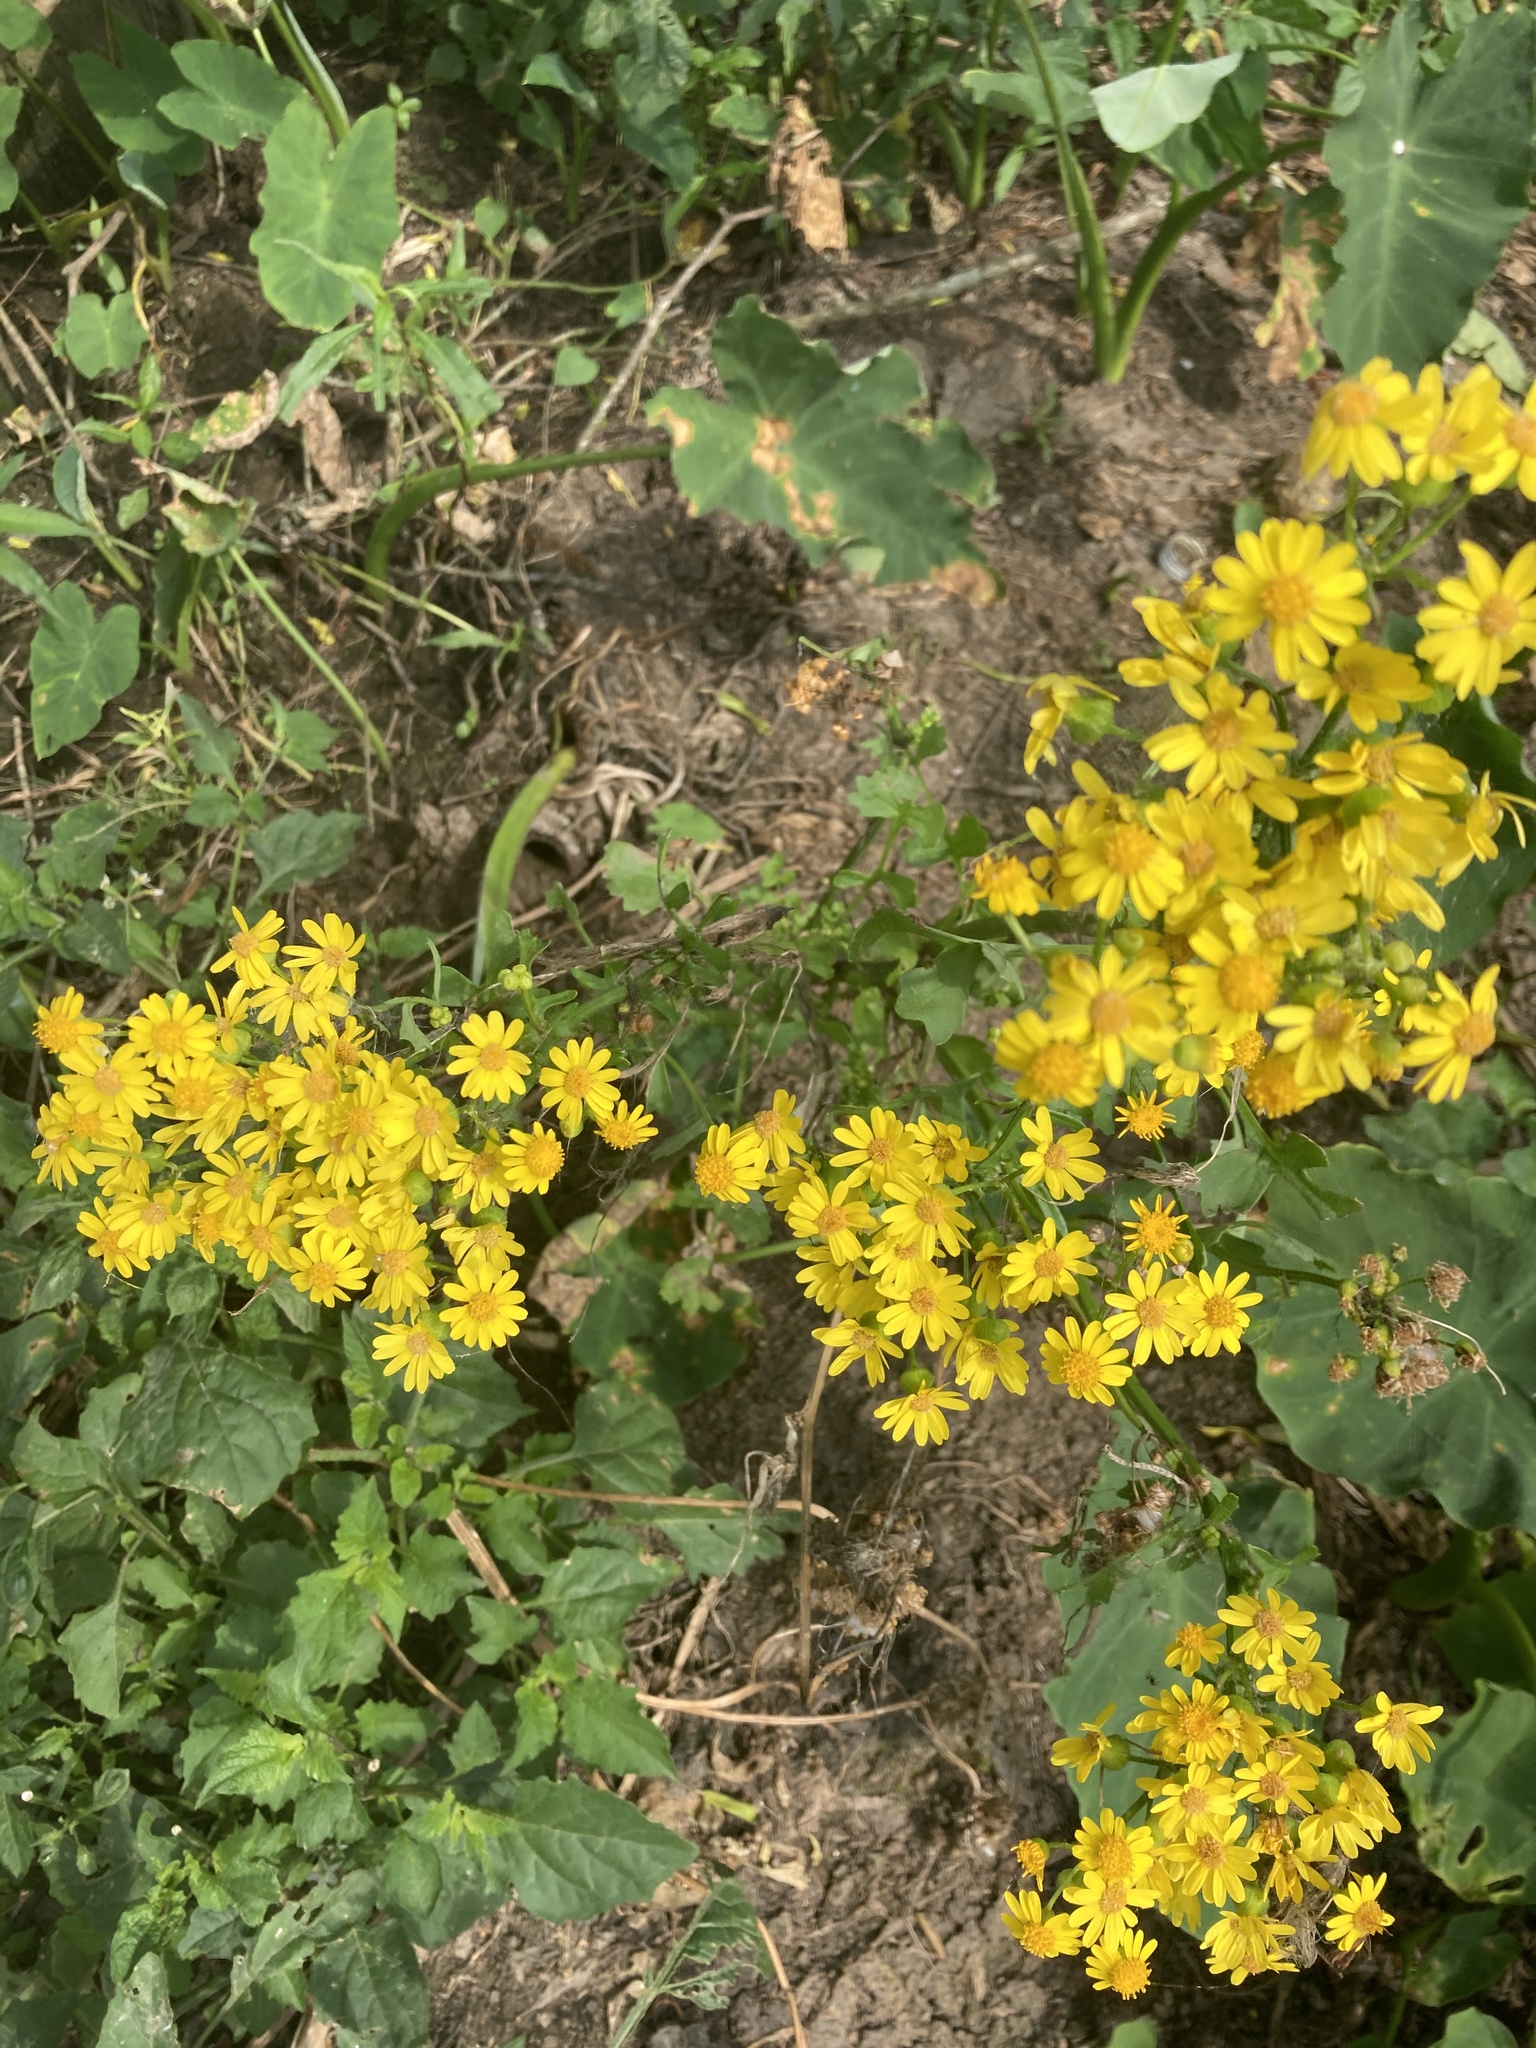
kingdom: Plantae
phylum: Tracheophyta
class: Magnoliopsida
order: Asterales
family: Asteraceae
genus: Packera
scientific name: Packera glabella
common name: Butterweed
